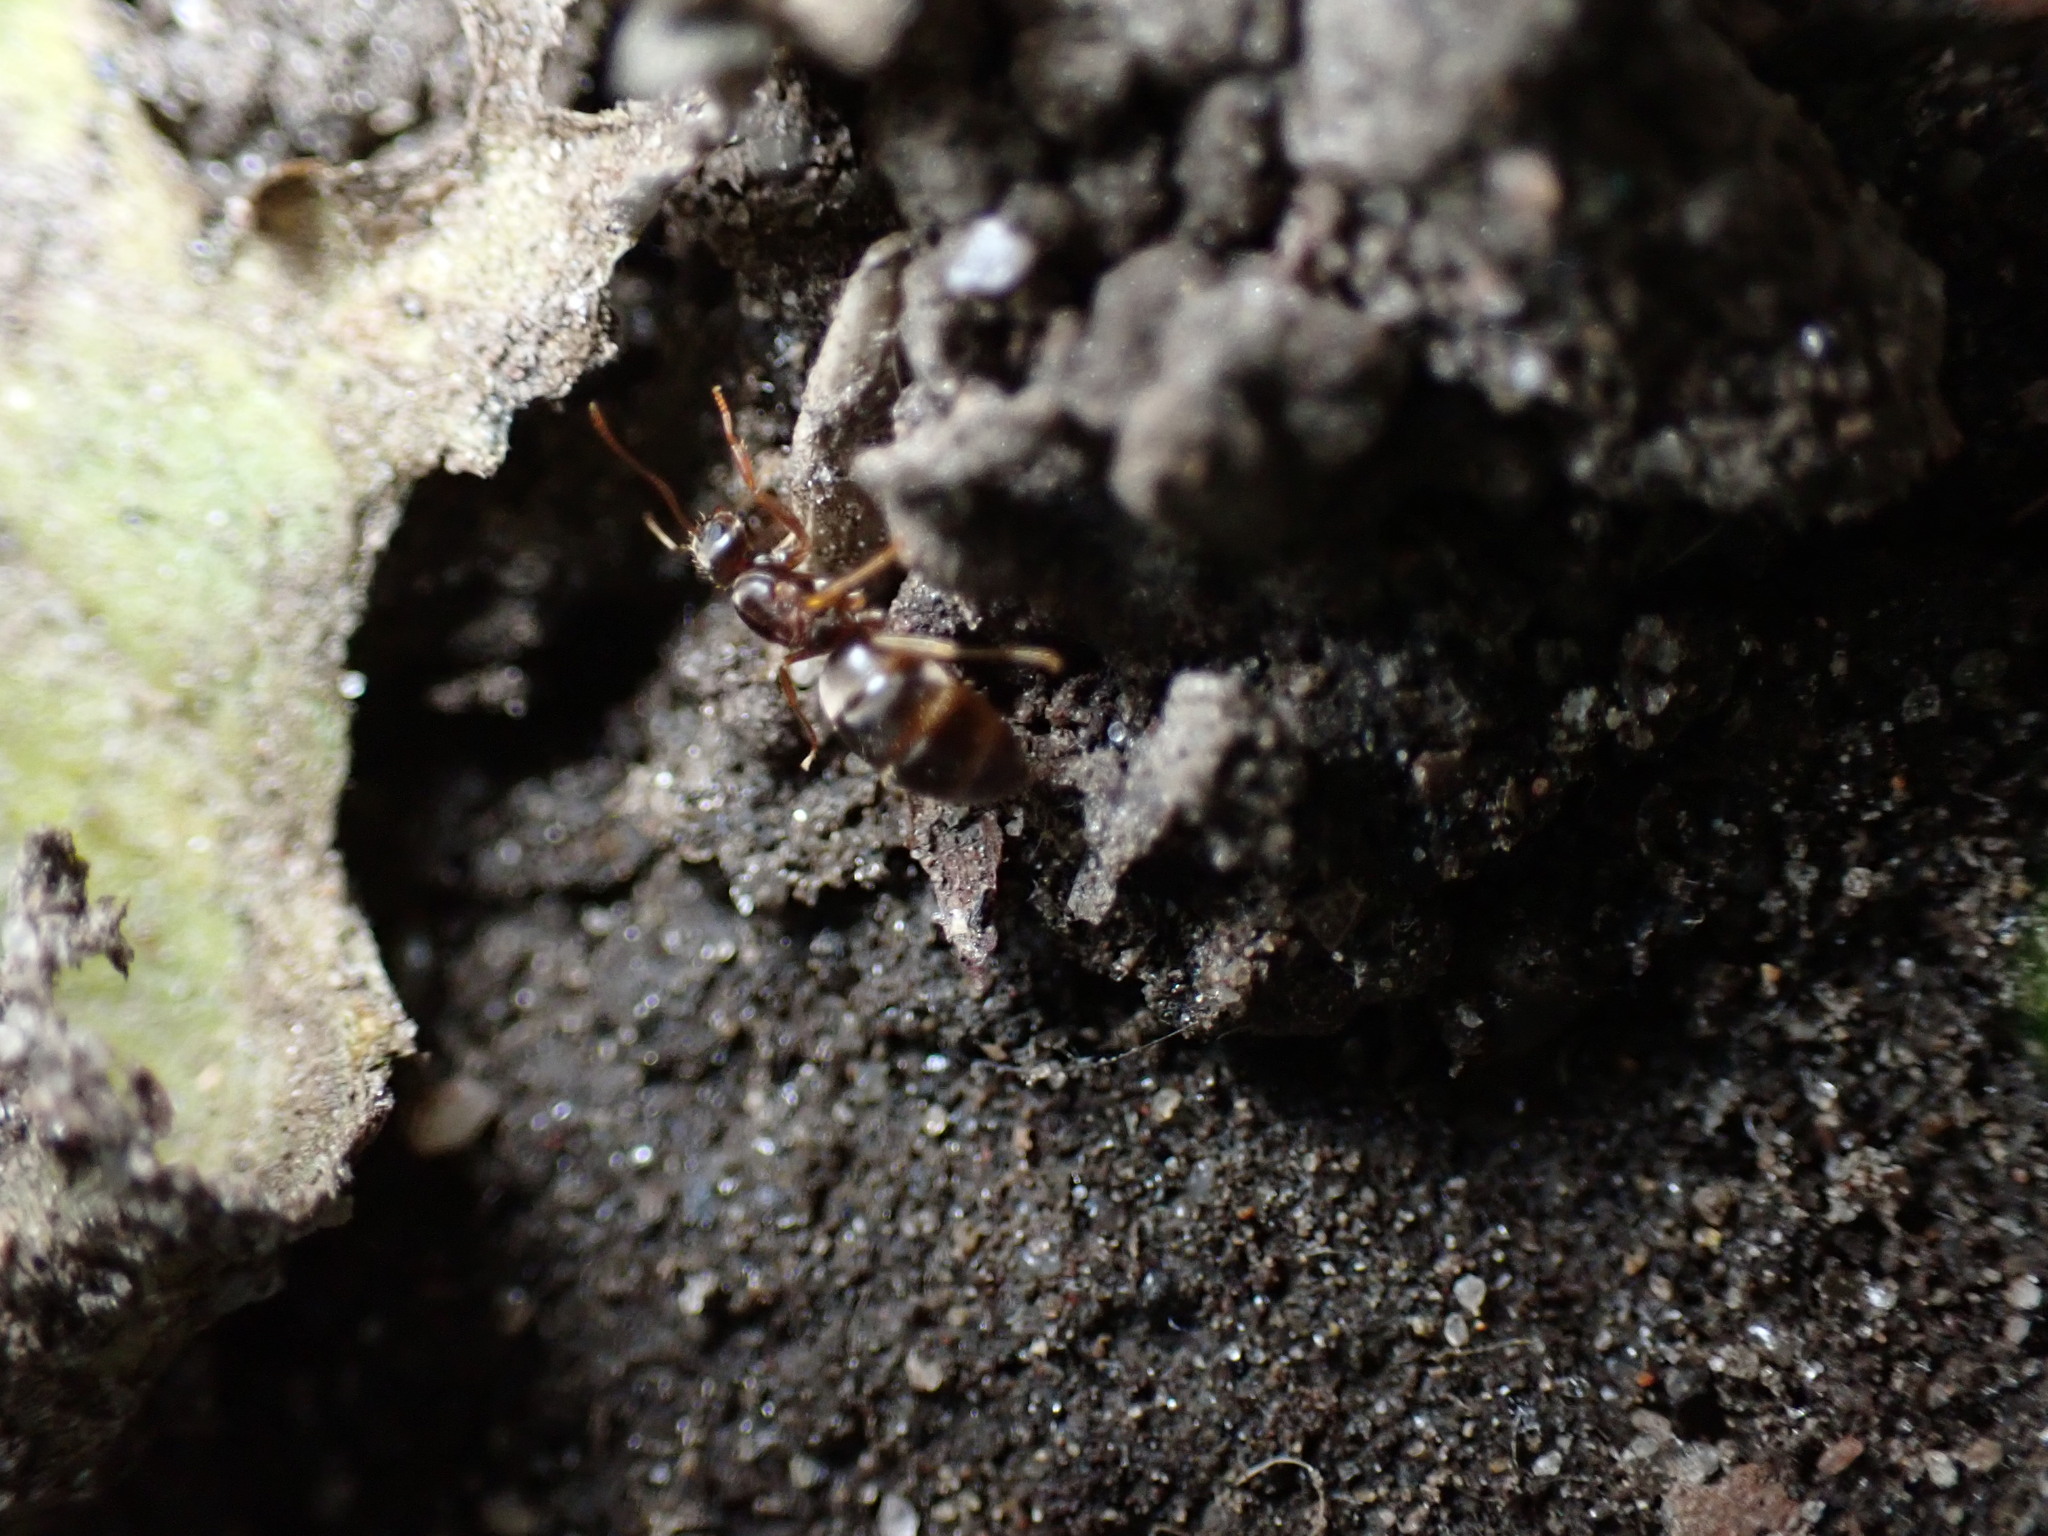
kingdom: Animalia
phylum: Arthropoda
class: Insecta
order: Hymenoptera
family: Formicidae
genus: Paratrechina
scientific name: Paratrechina flavipes
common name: Eastern asian formicine ant
